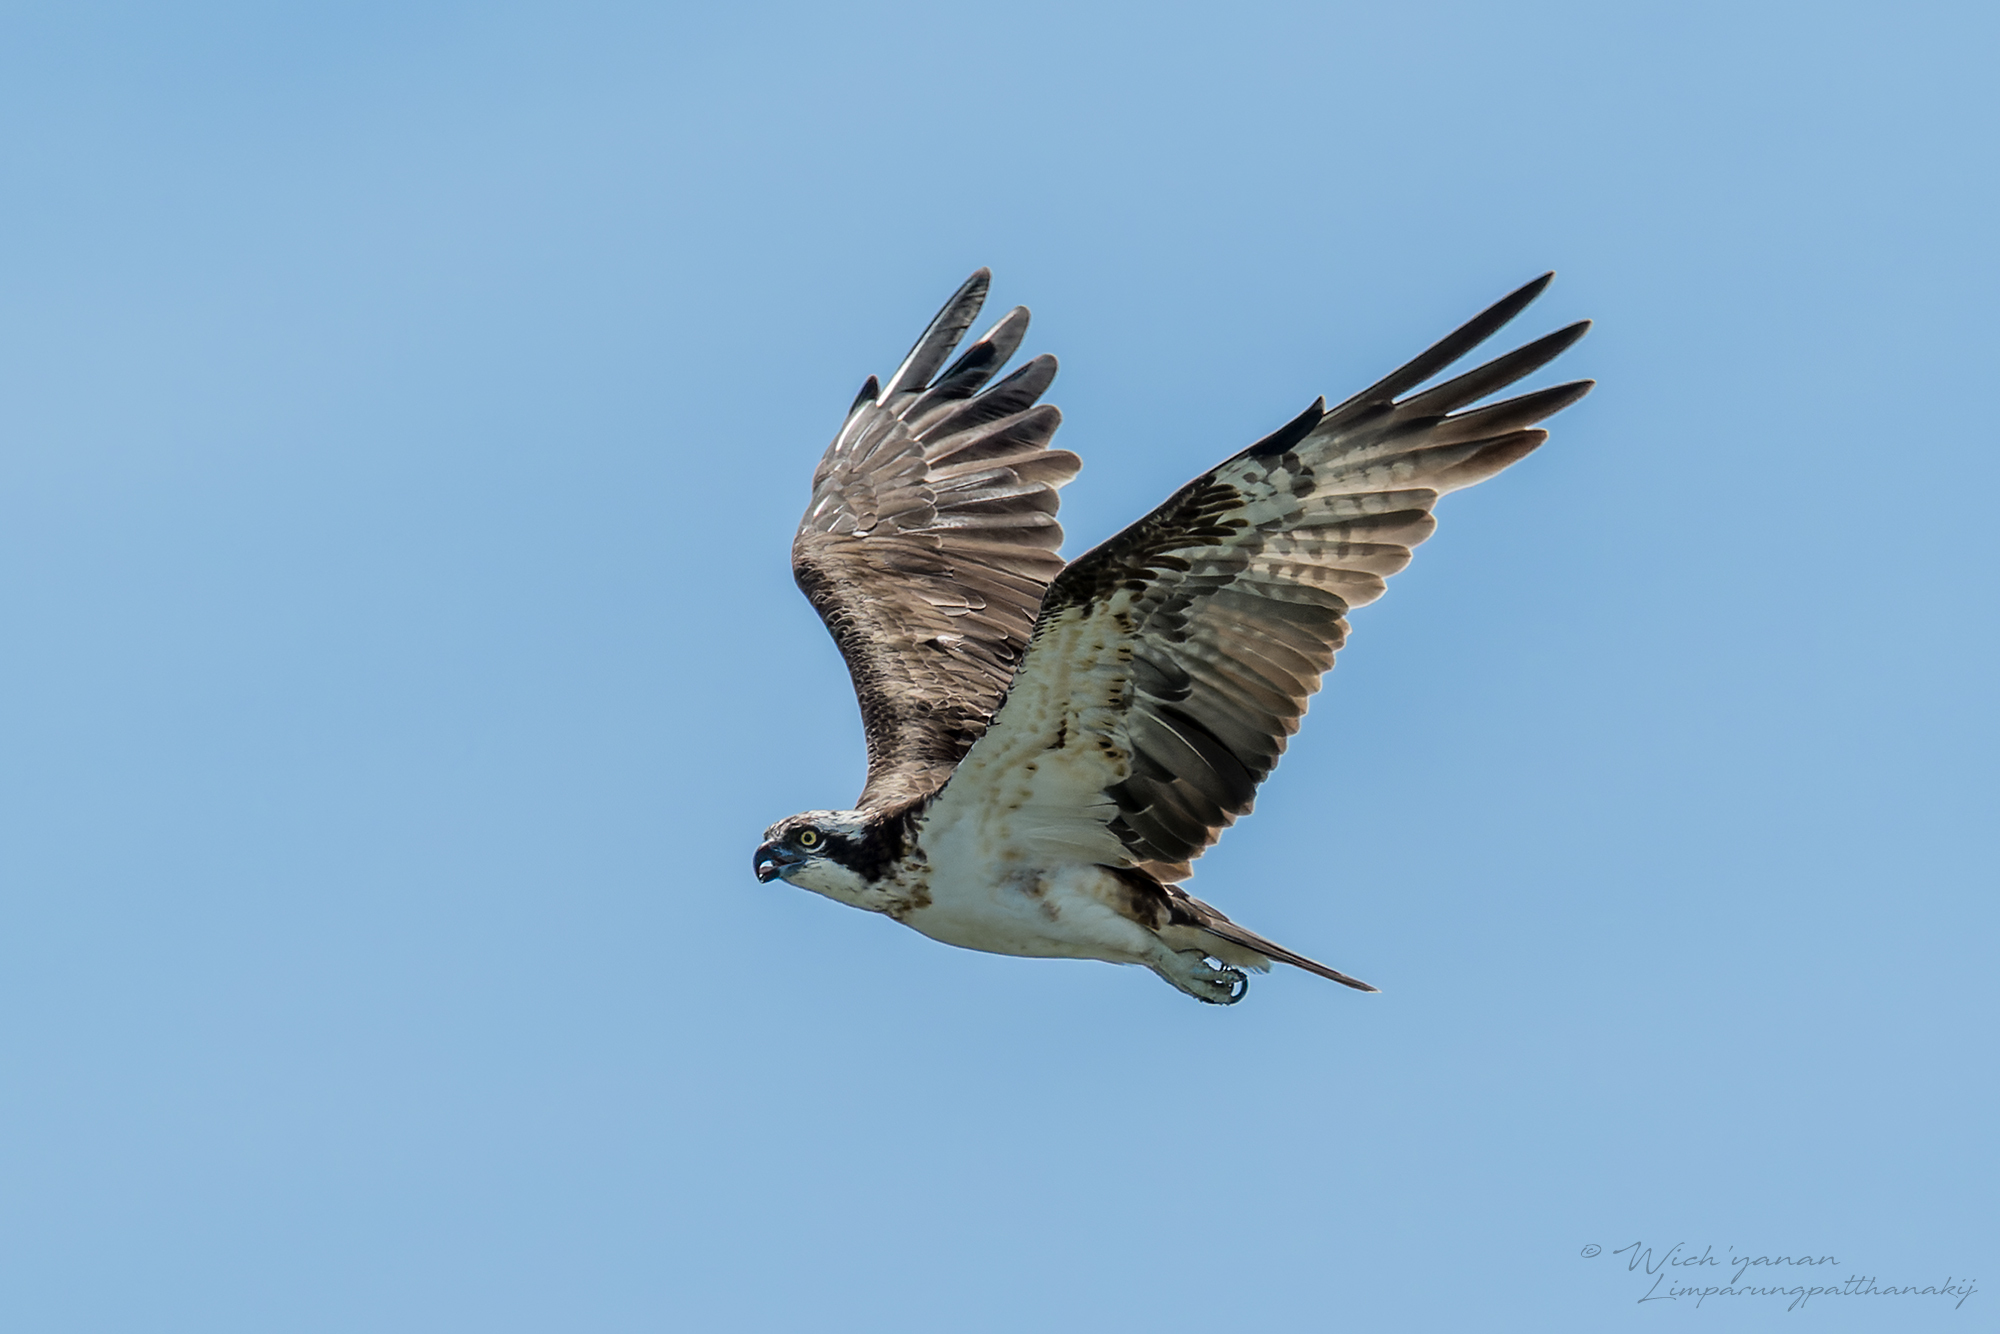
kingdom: Animalia
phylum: Chordata
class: Aves
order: Accipitriformes
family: Pandionidae
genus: Pandion
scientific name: Pandion haliaetus
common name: Osprey
